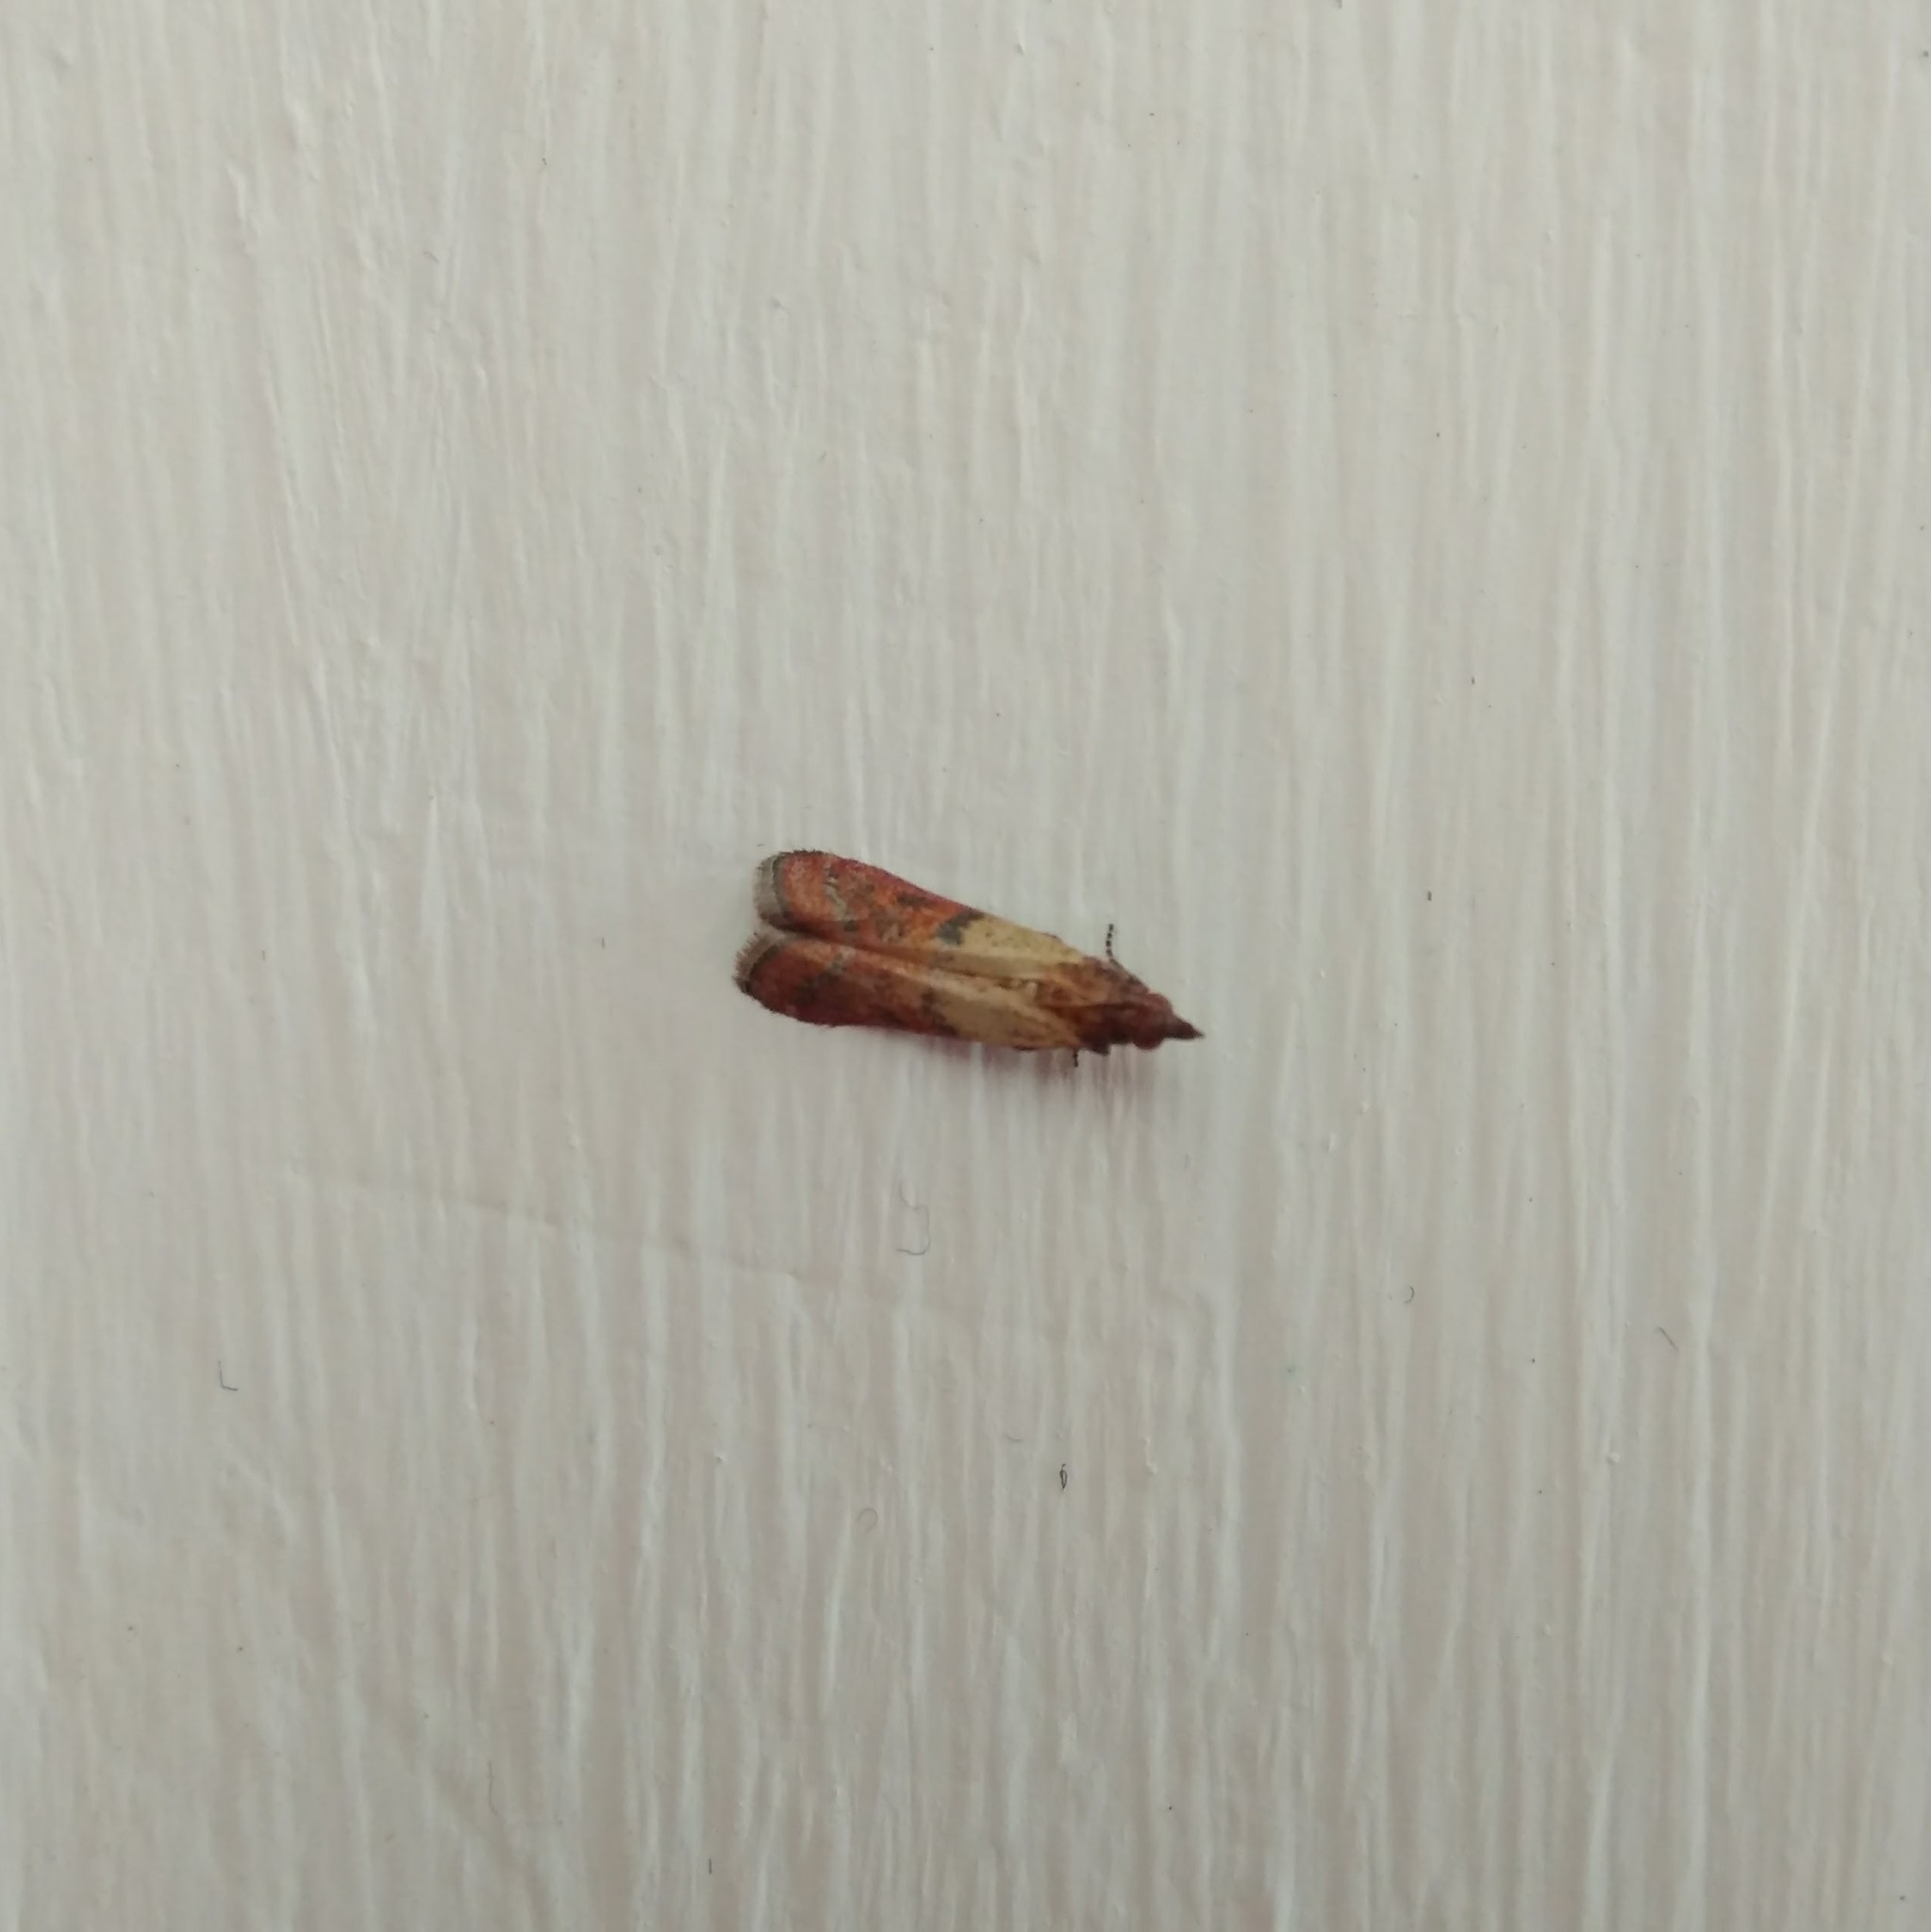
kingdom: Animalia
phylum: Arthropoda
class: Insecta
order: Lepidoptera
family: Pyralidae
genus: Plodia
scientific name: Plodia interpunctella
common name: Indian meal moth
